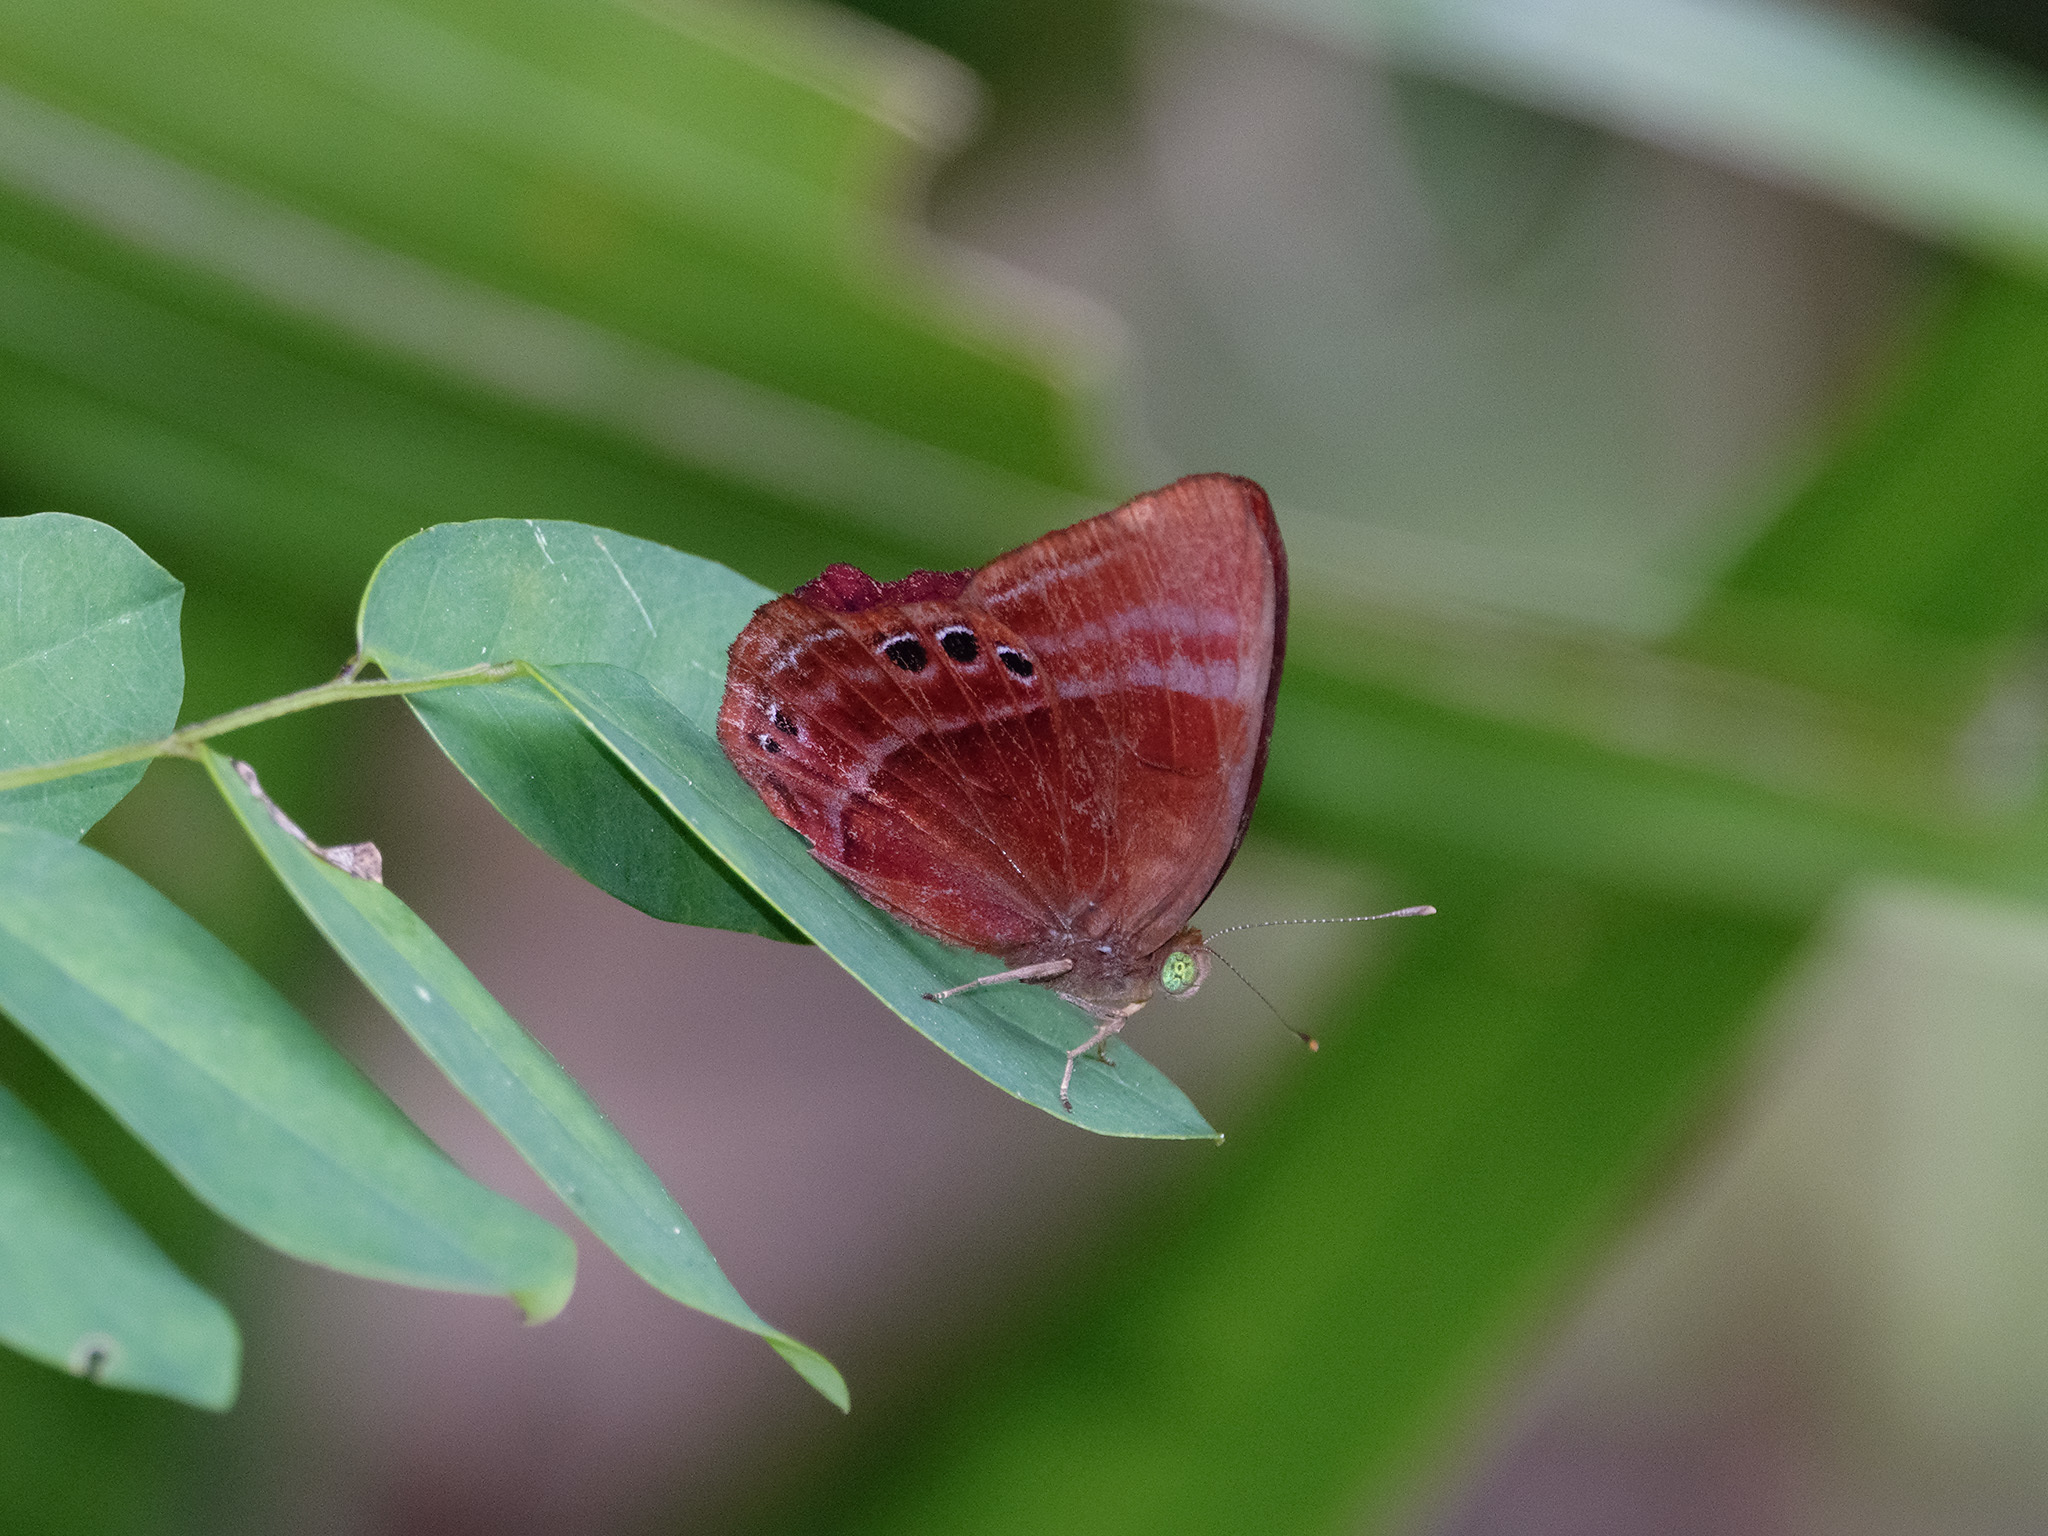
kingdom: Animalia
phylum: Arthropoda
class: Insecta
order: Lepidoptera
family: Lycaenidae
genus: Abisara
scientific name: Abisara saturata
